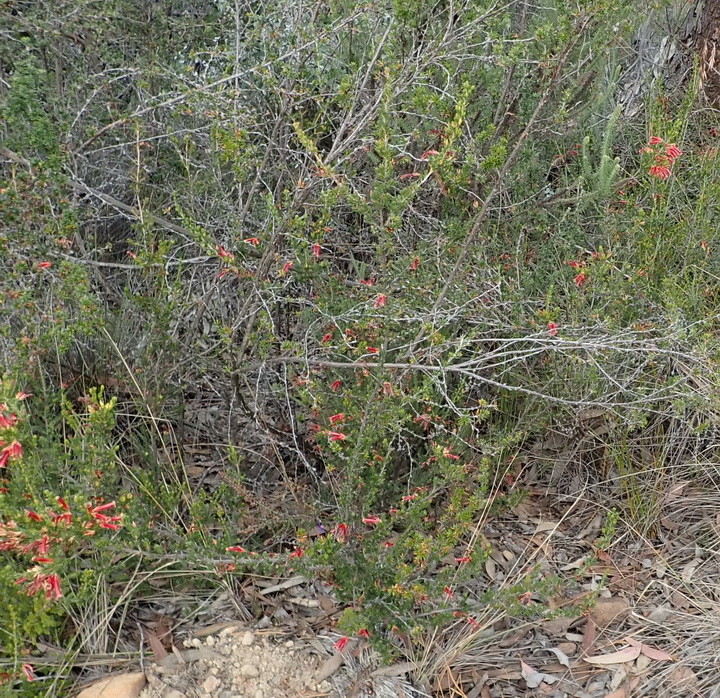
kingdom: Plantae
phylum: Tracheophyta
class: Magnoliopsida
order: Ericales
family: Ericaceae
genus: Erica
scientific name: Erica discolor
